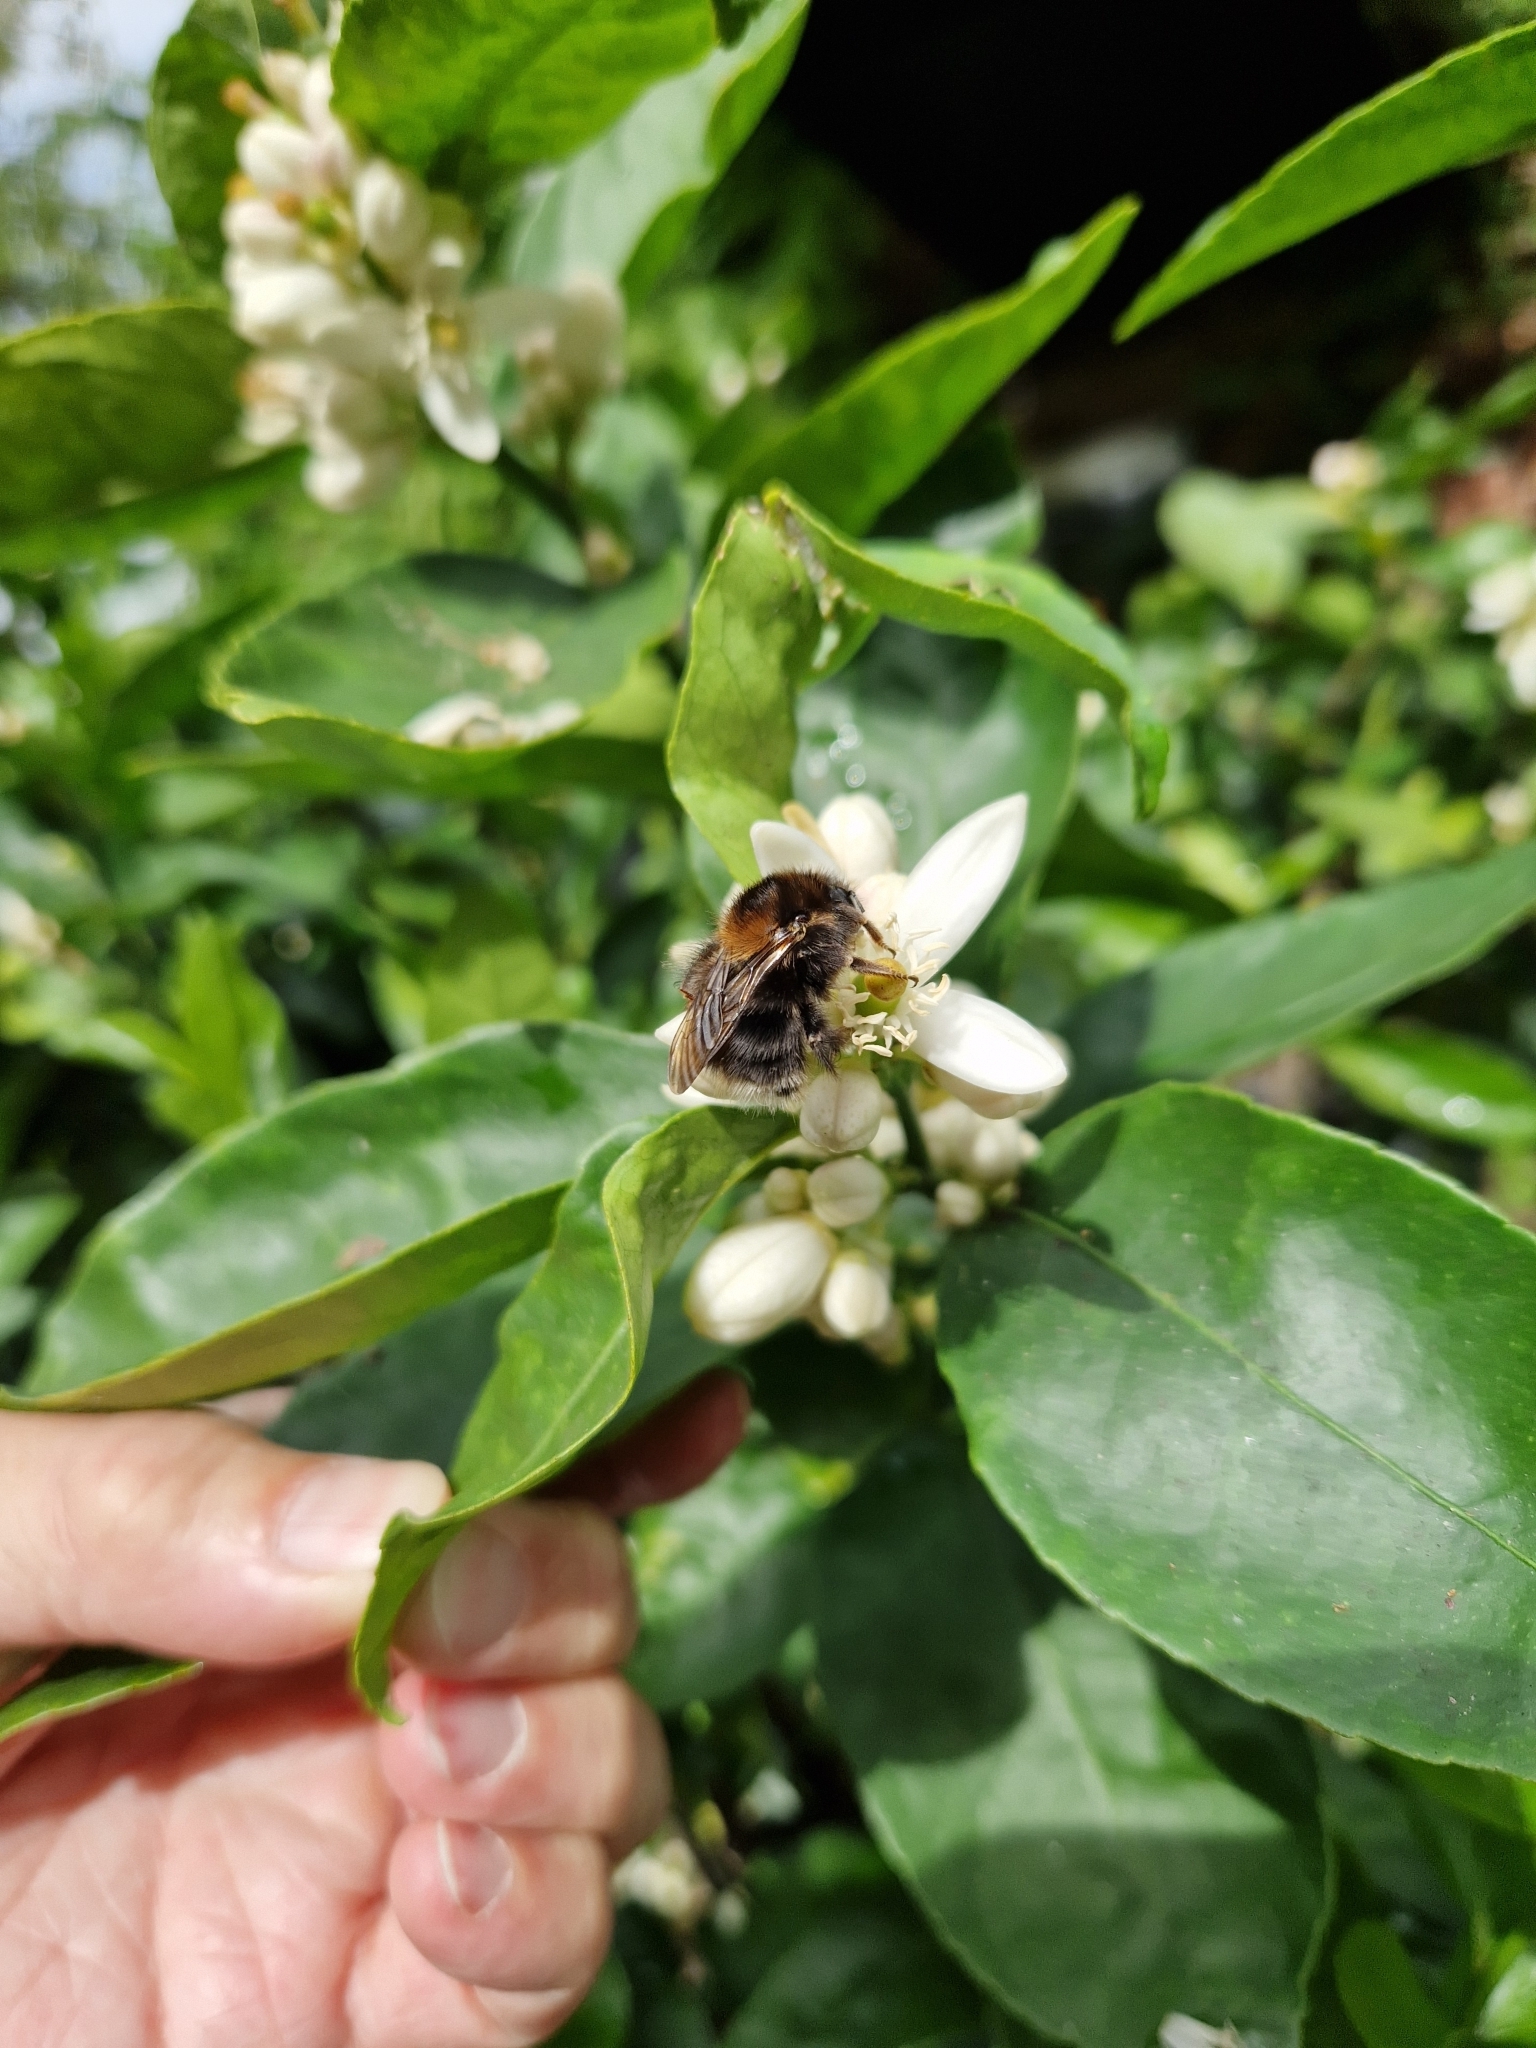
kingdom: Animalia
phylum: Arthropoda
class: Insecta
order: Hymenoptera
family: Apidae
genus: Bombus
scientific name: Bombus hypnorum
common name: New garden bumblebee
